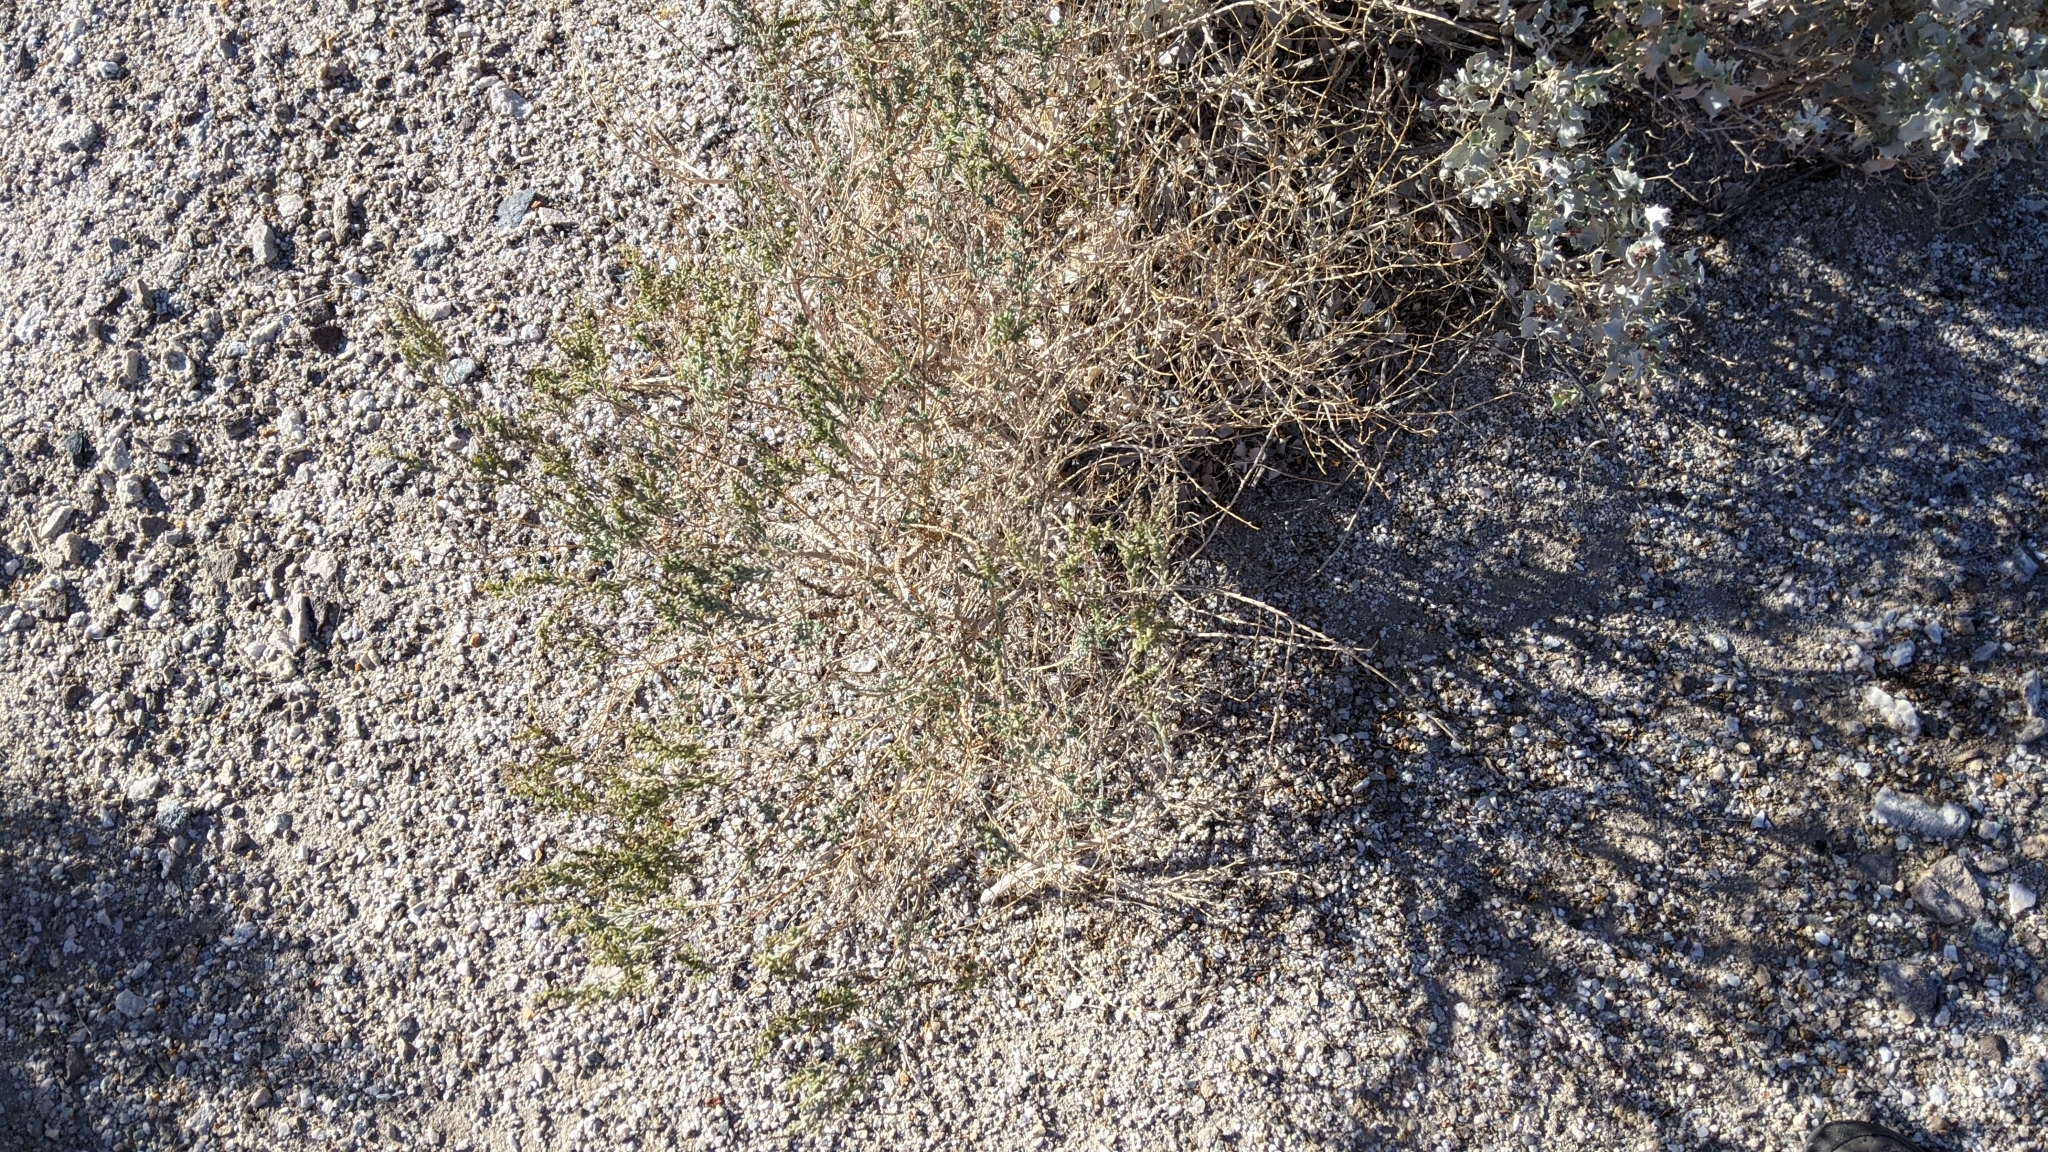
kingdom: Plantae
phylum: Tracheophyta
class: Magnoliopsida
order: Caryophyllales
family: Amaranthaceae
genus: Suaeda
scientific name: Suaeda nigra
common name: Bush seepweed
